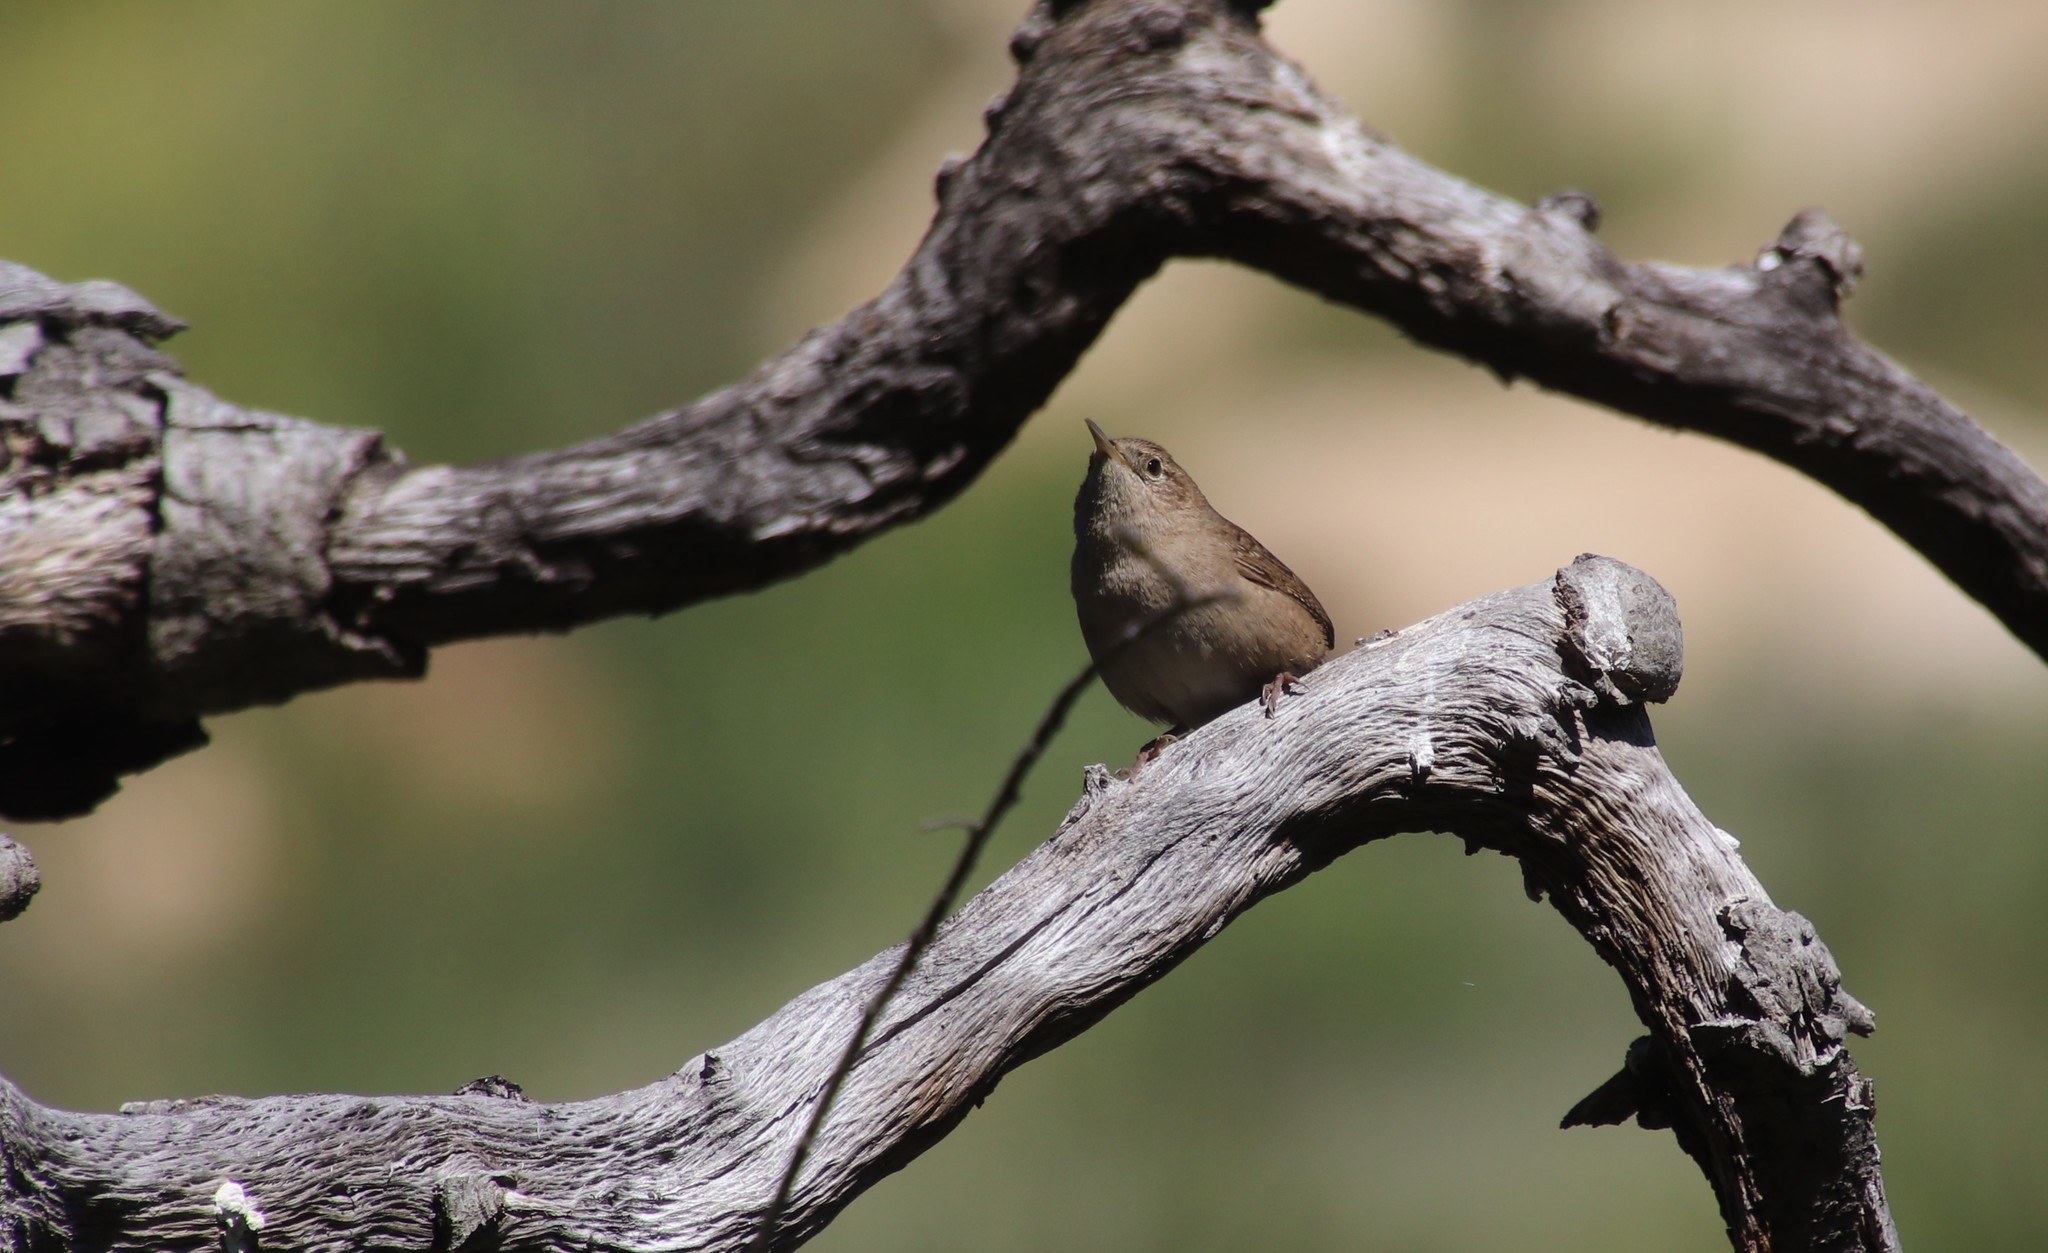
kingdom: Animalia
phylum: Chordata
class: Aves
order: Passeriformes
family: Troglodytidae
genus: Troglodytes
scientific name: Troglodytes aedon
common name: House wren
